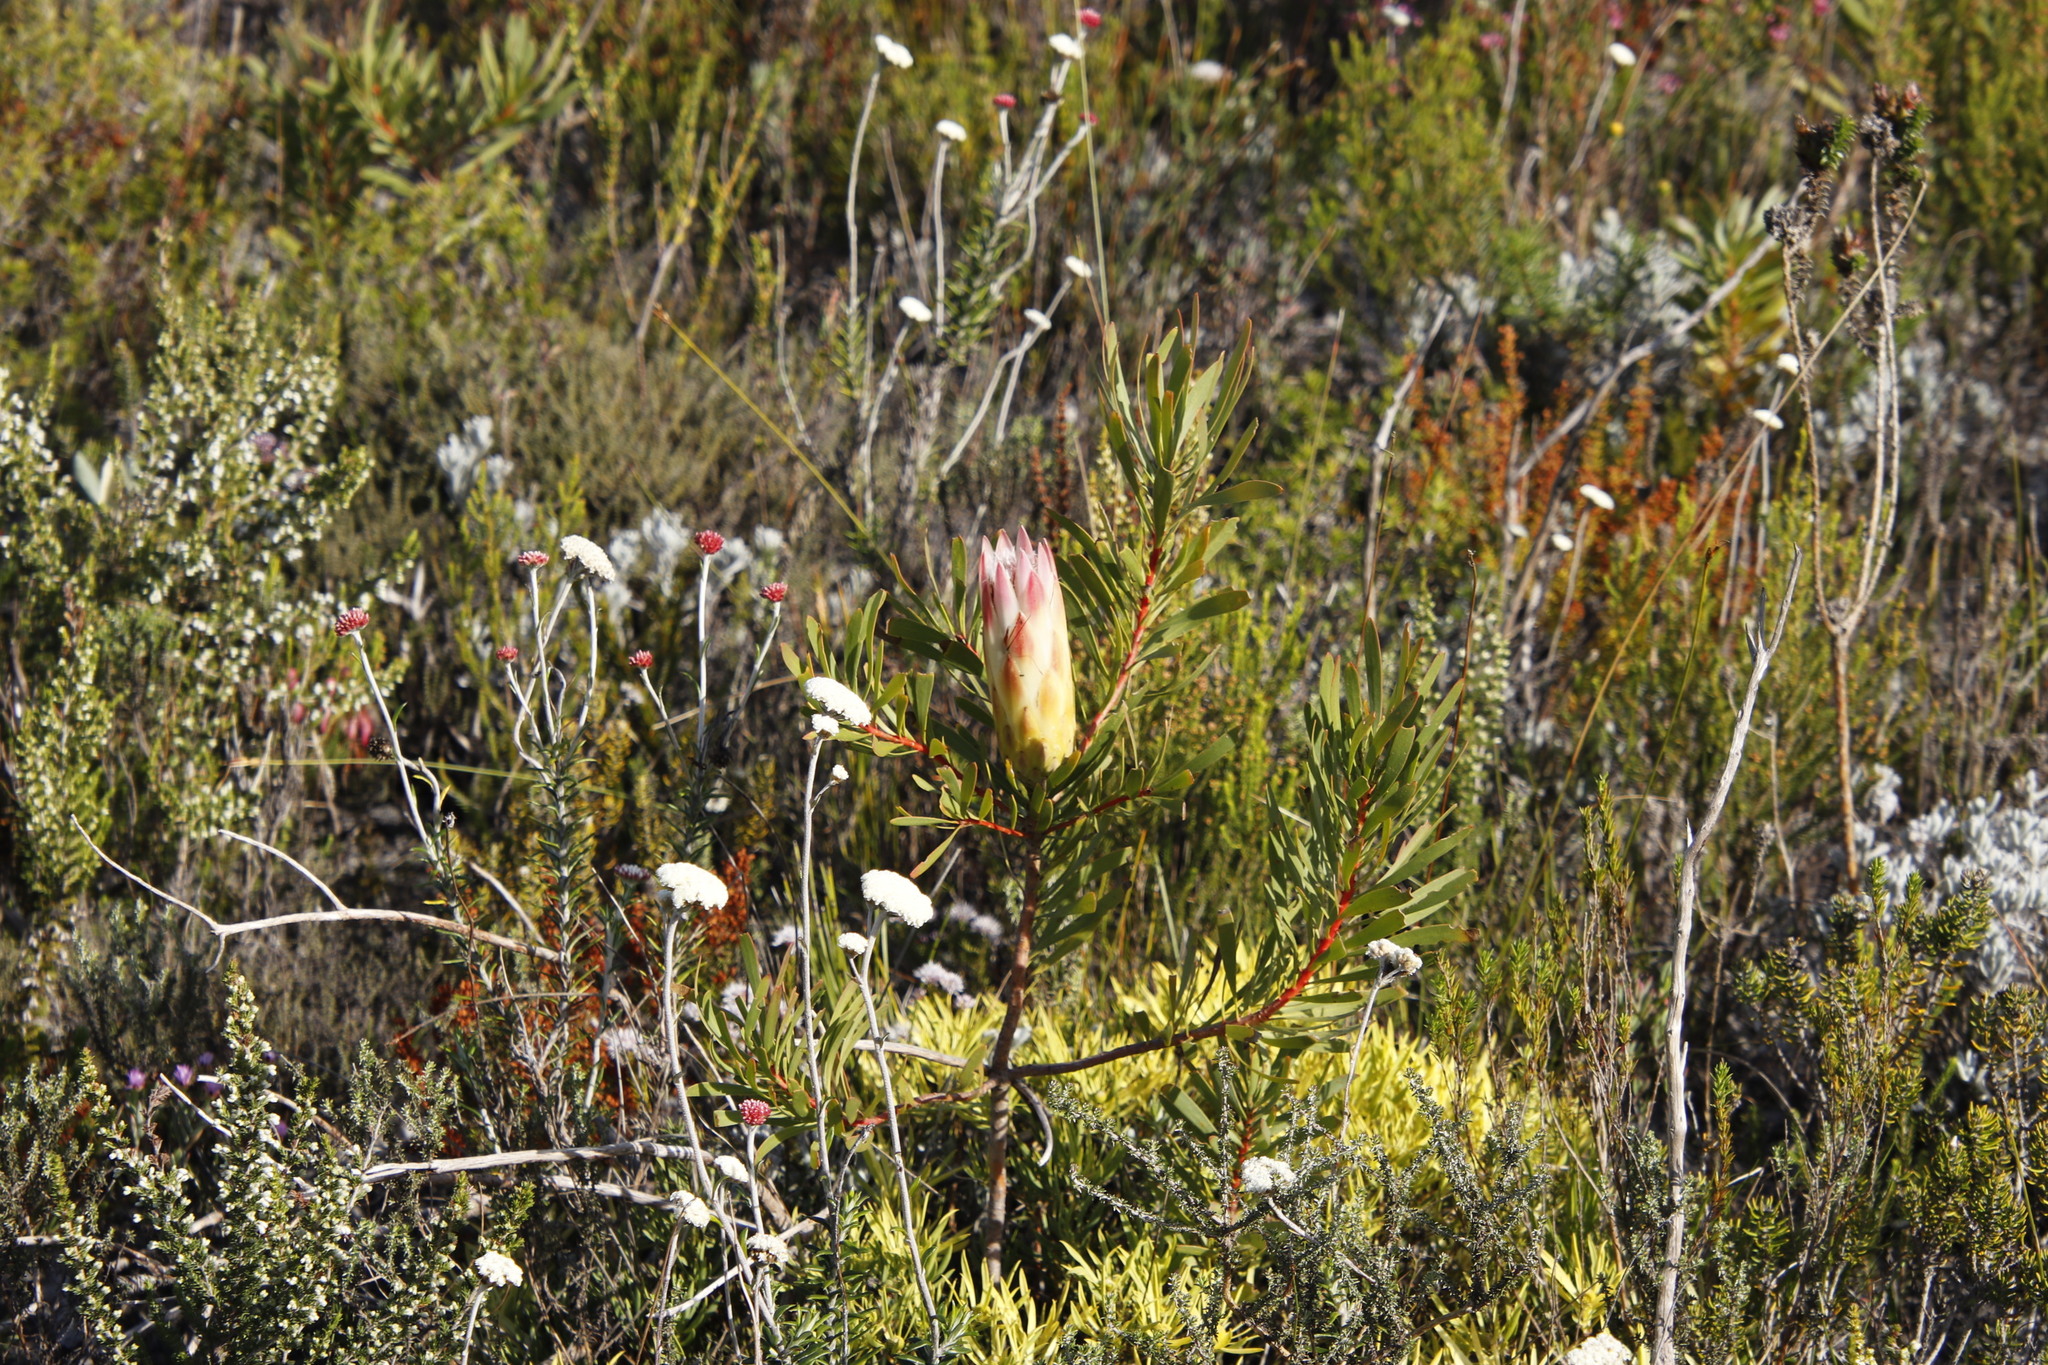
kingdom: Plantae
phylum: Tracheophyta
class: Magnoliopsida
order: Proteales
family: Proteaceae
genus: Protea
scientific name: Protea repens
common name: Sugarbush
